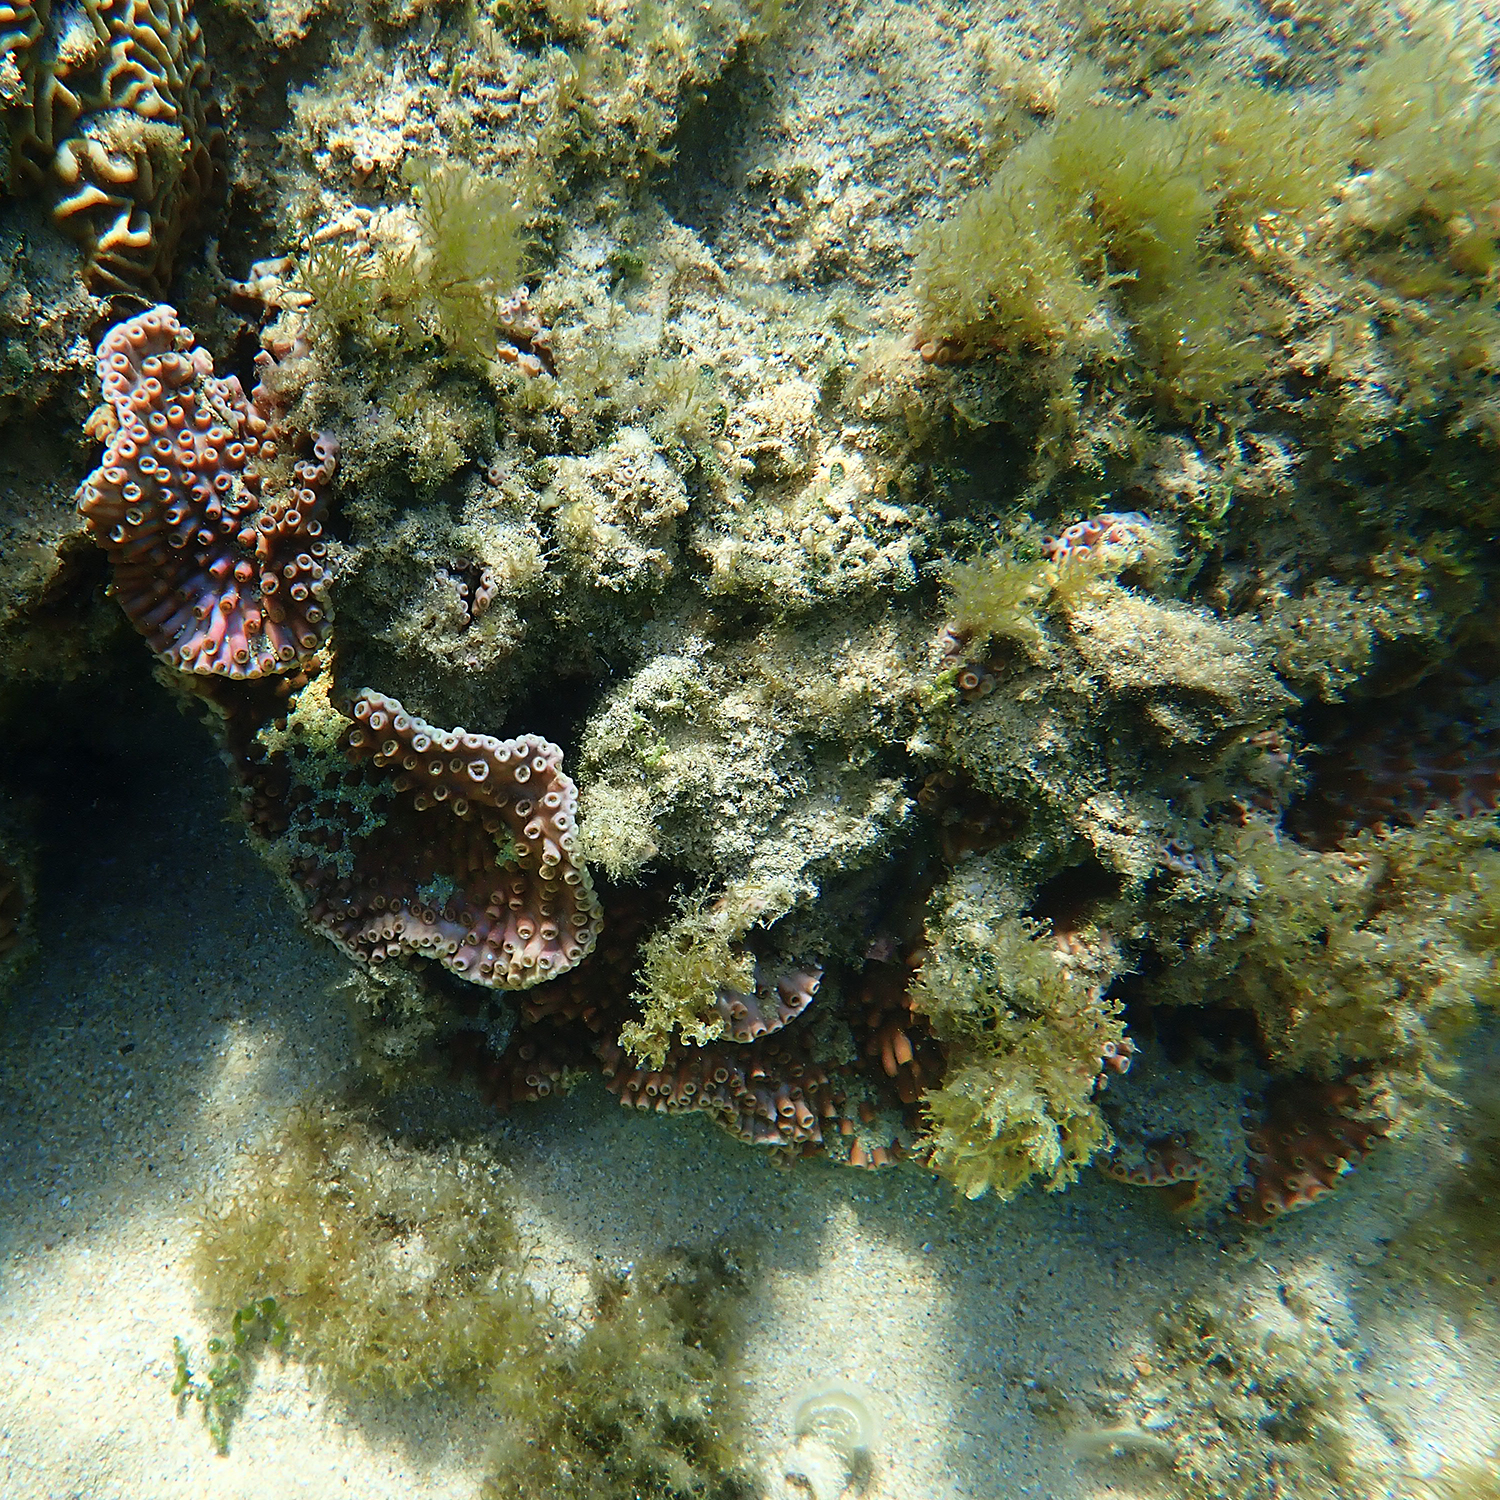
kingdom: Animalia
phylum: Cnidaria
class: Anthozoa
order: Scleractinia
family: Dendrophylliidae
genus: Turbinaria
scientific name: Turbinaria heronensis
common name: Disc coral
